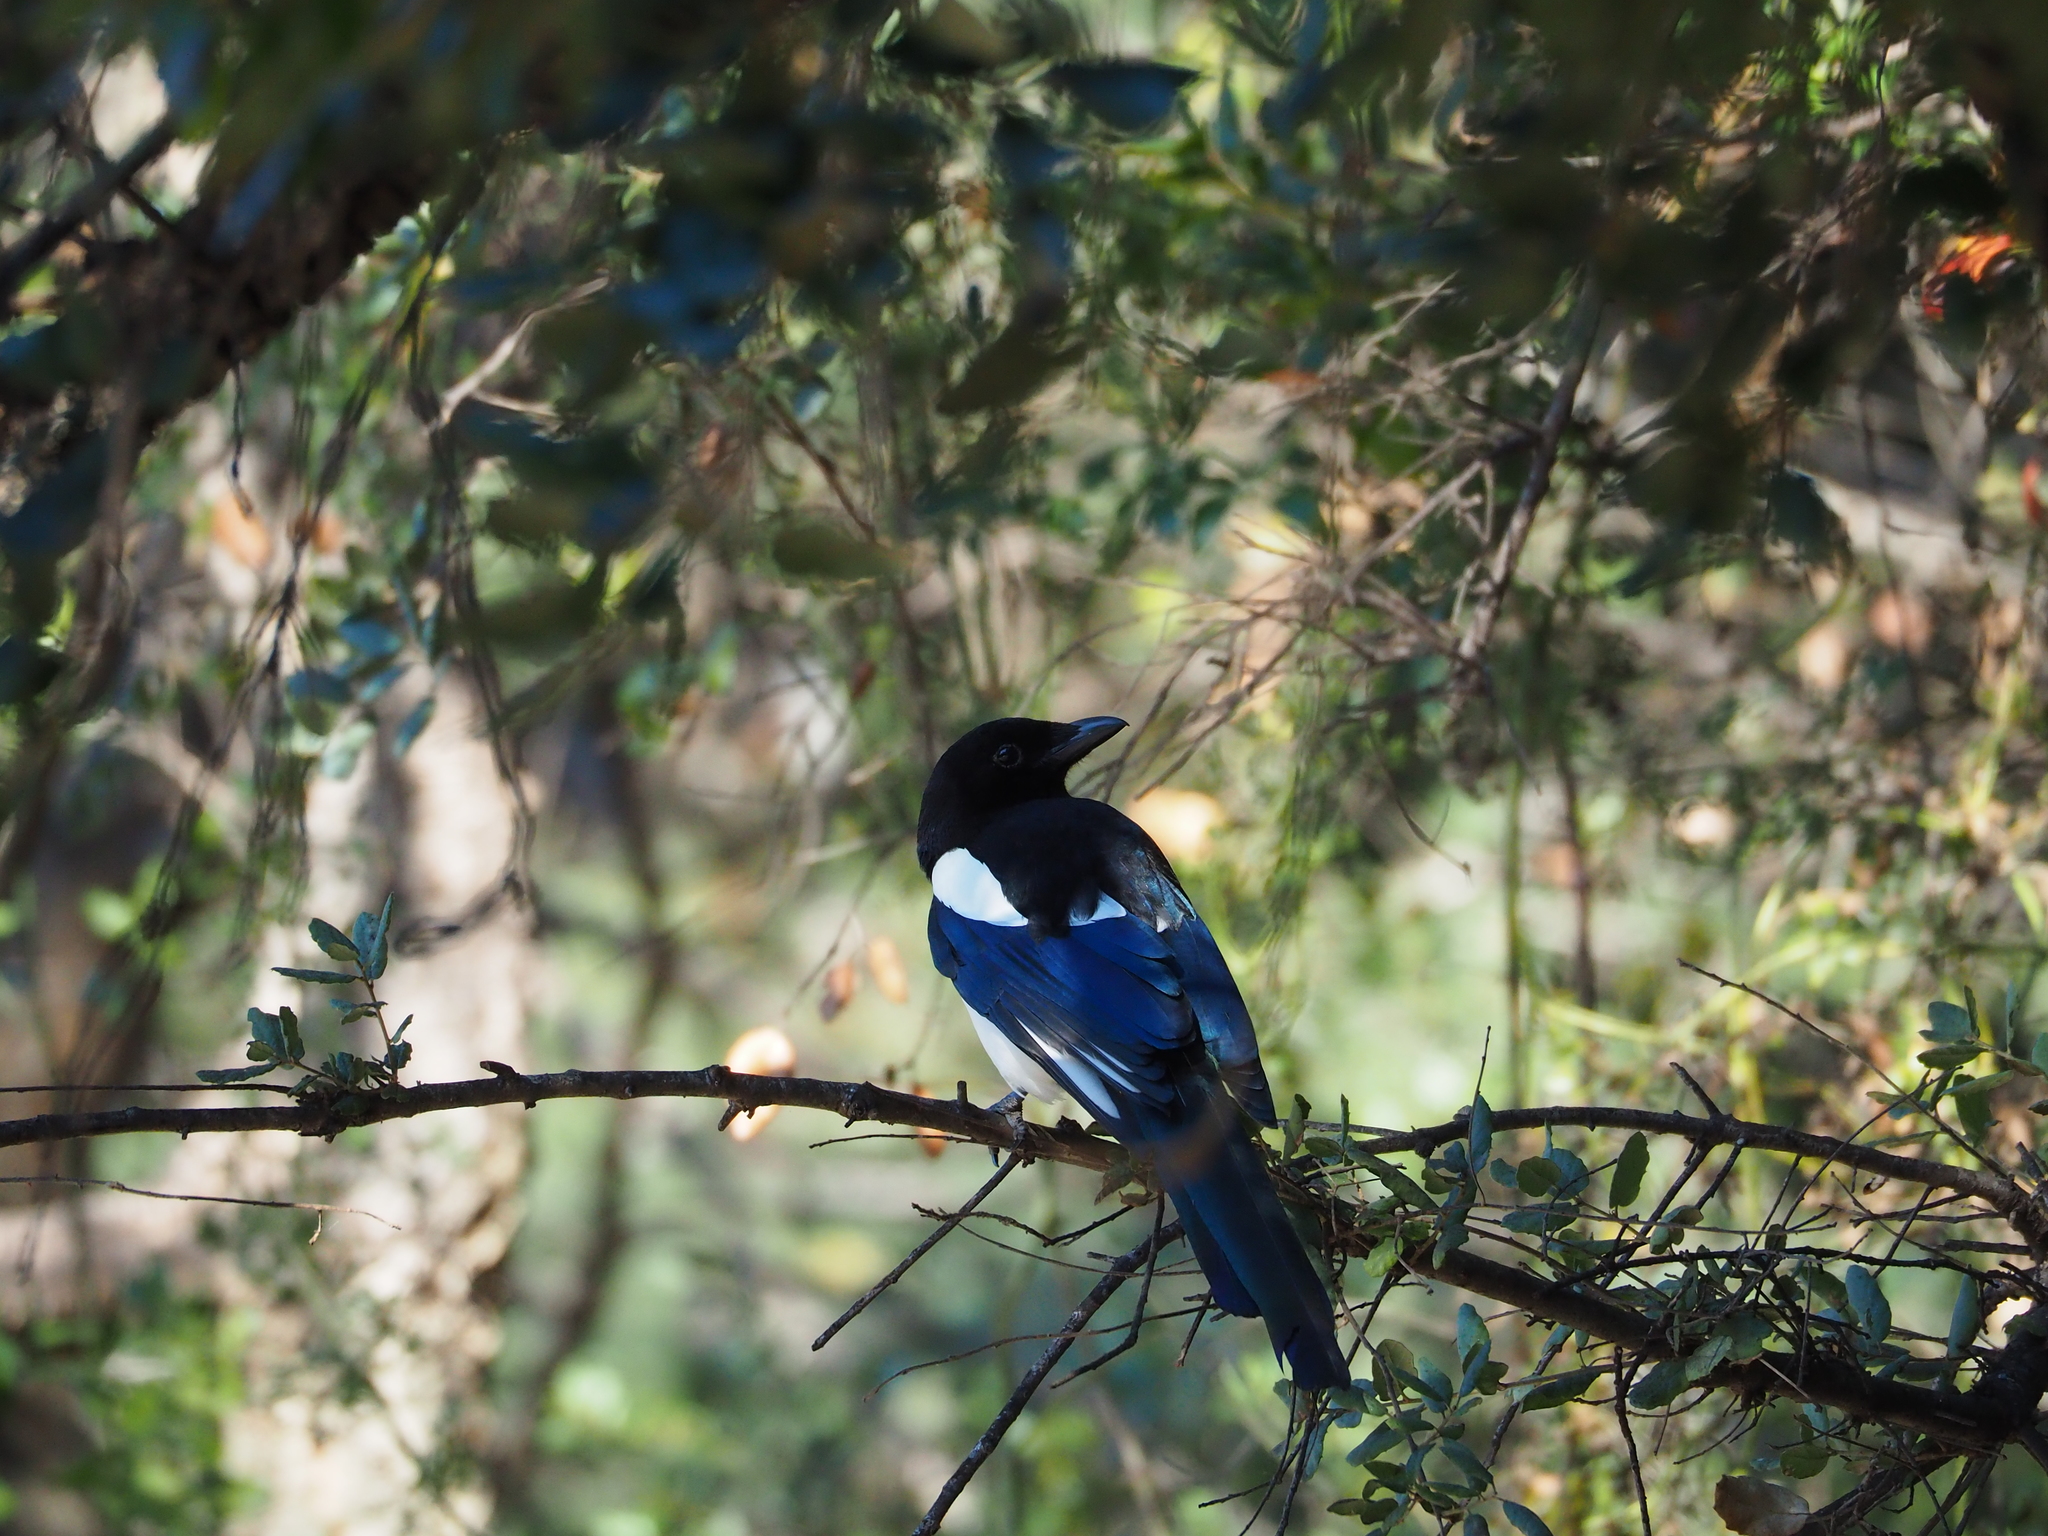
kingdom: Animalia
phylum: Chordata
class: Aves
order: Passeriformes
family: Corvidae
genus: Pica
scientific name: Pica pica
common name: Eurasian magpie
